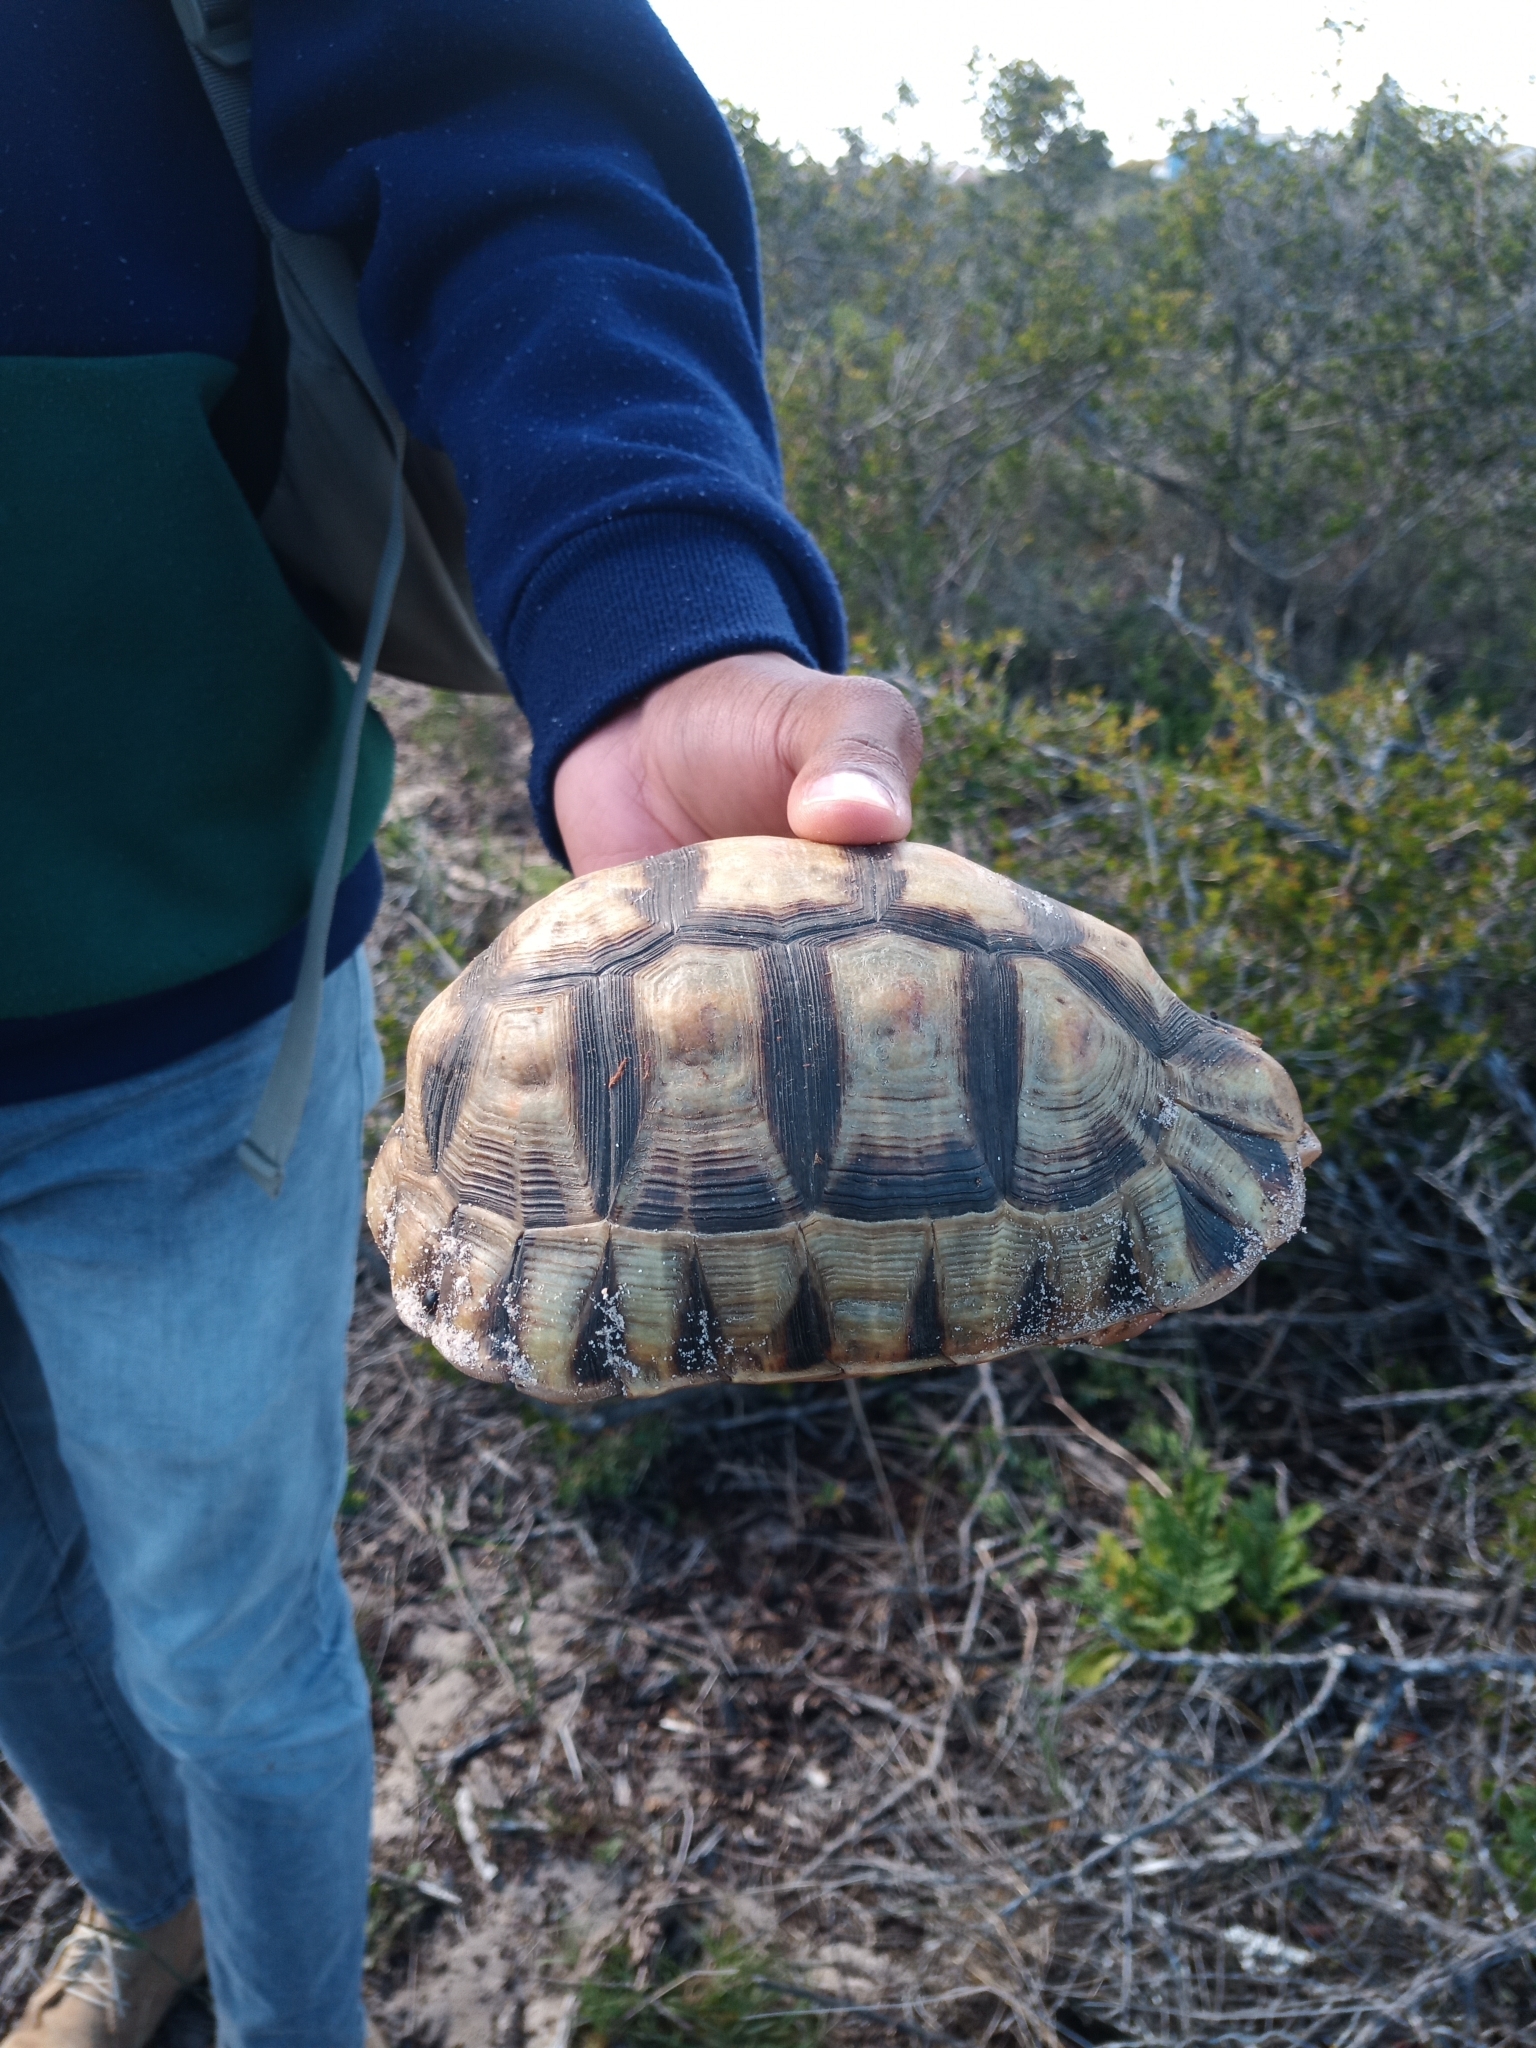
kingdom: Animalia
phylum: Chordata
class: Testudines
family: Testudinidae
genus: Chersina
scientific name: Chersina angulata
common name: South african bowsprit tortoise
